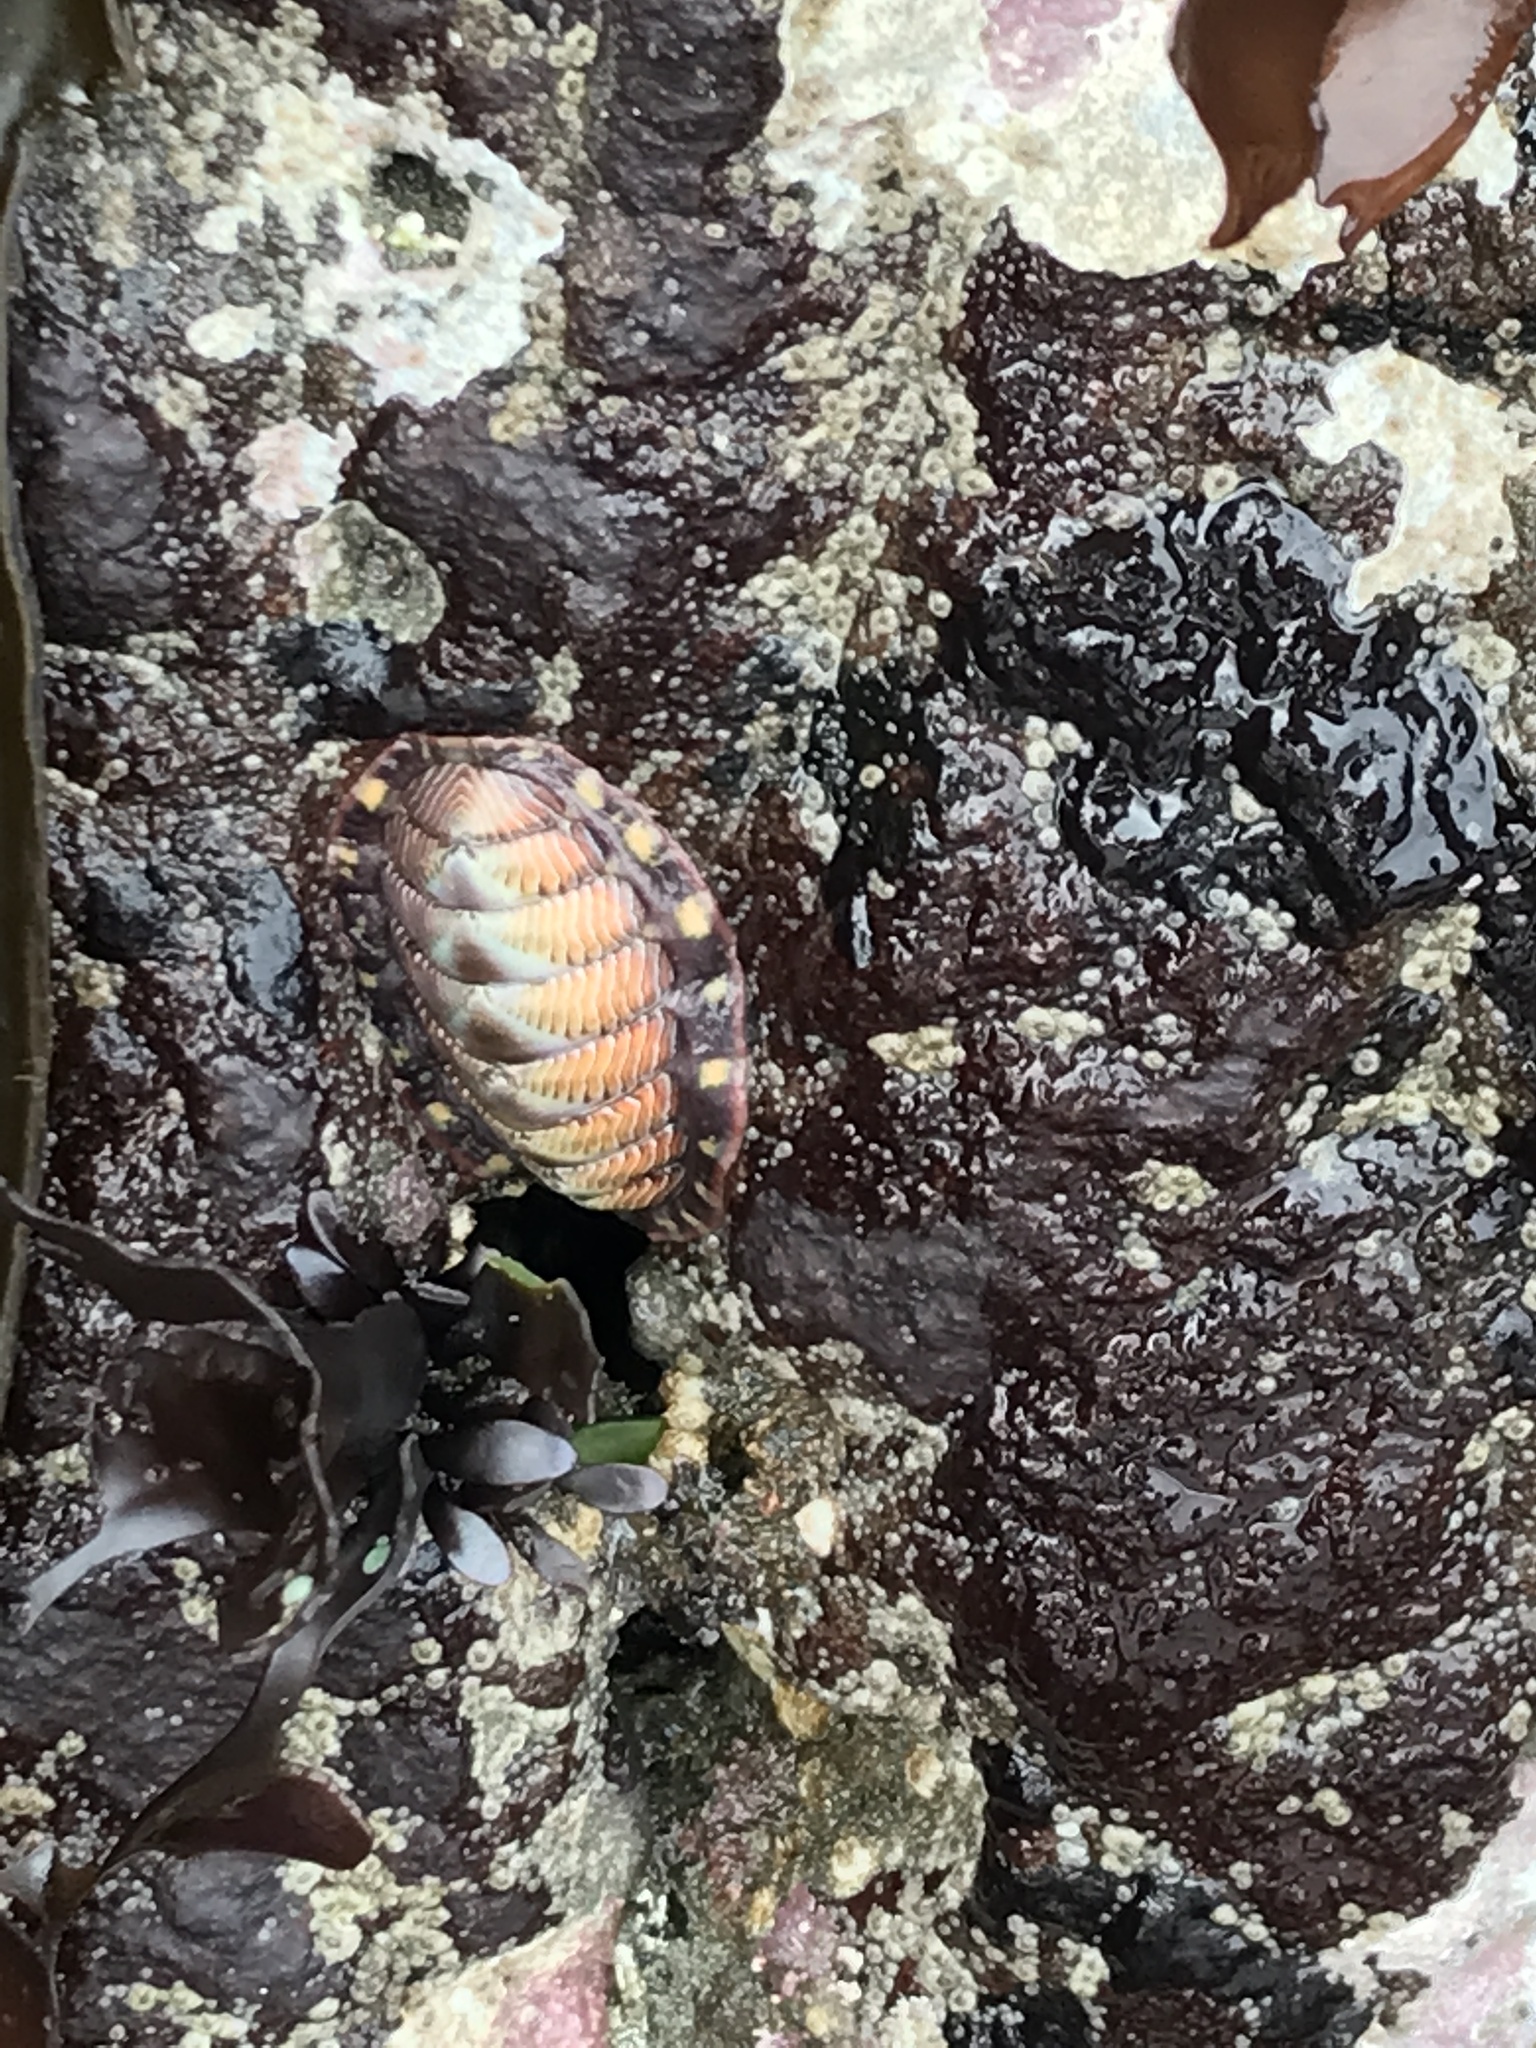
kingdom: Animalia
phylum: Mollusca
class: Polyplacophora
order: Chitonida
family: Tonicellidae
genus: Tonicella
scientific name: Tonicella lineata
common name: Lined chiton
